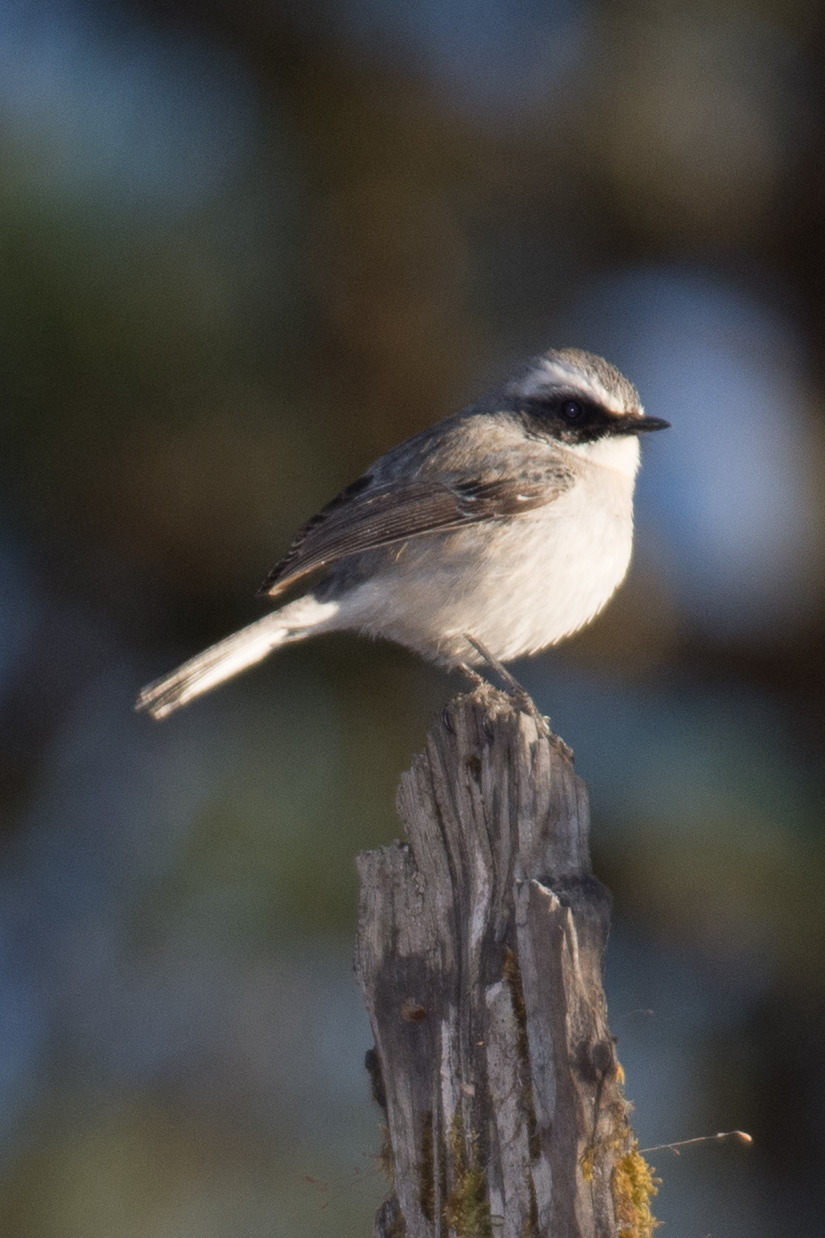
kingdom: Animalia
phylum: Chordata
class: Aves
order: Passeriformes
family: Muscicapidae
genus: Saxicola
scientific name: Saxicola ferreus
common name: Grey bush chat
